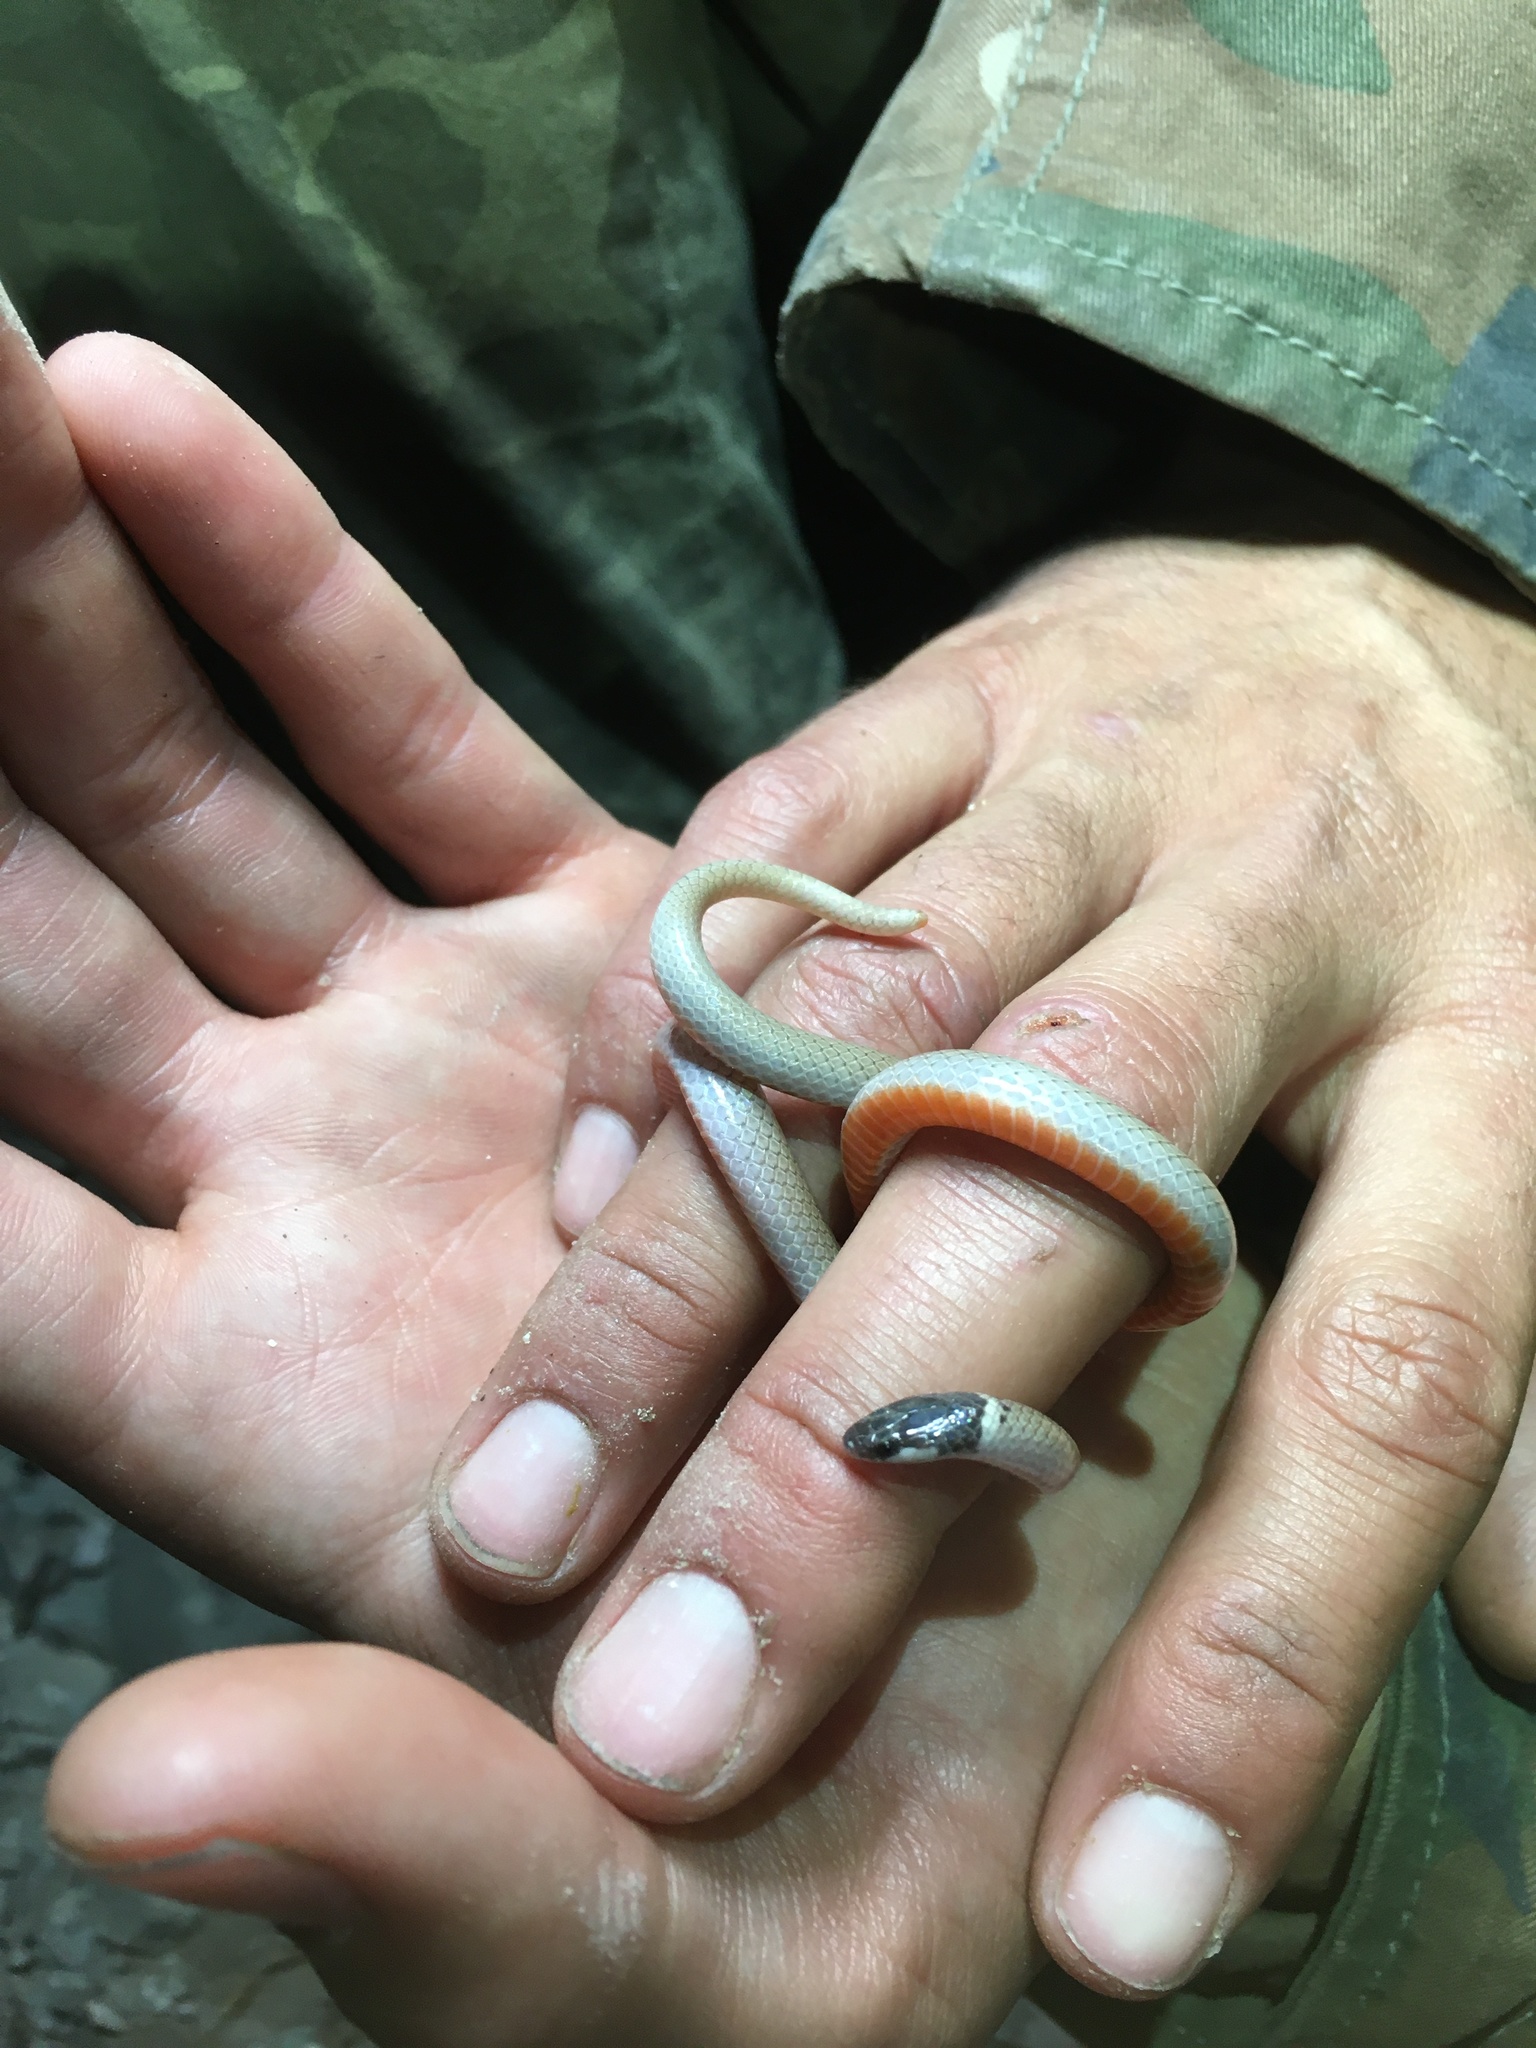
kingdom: Animalia
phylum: Chordata
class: Squamata
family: Colubridae
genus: Tantilla
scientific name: Tantilla yaquia
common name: Yaqui black-headed snake
